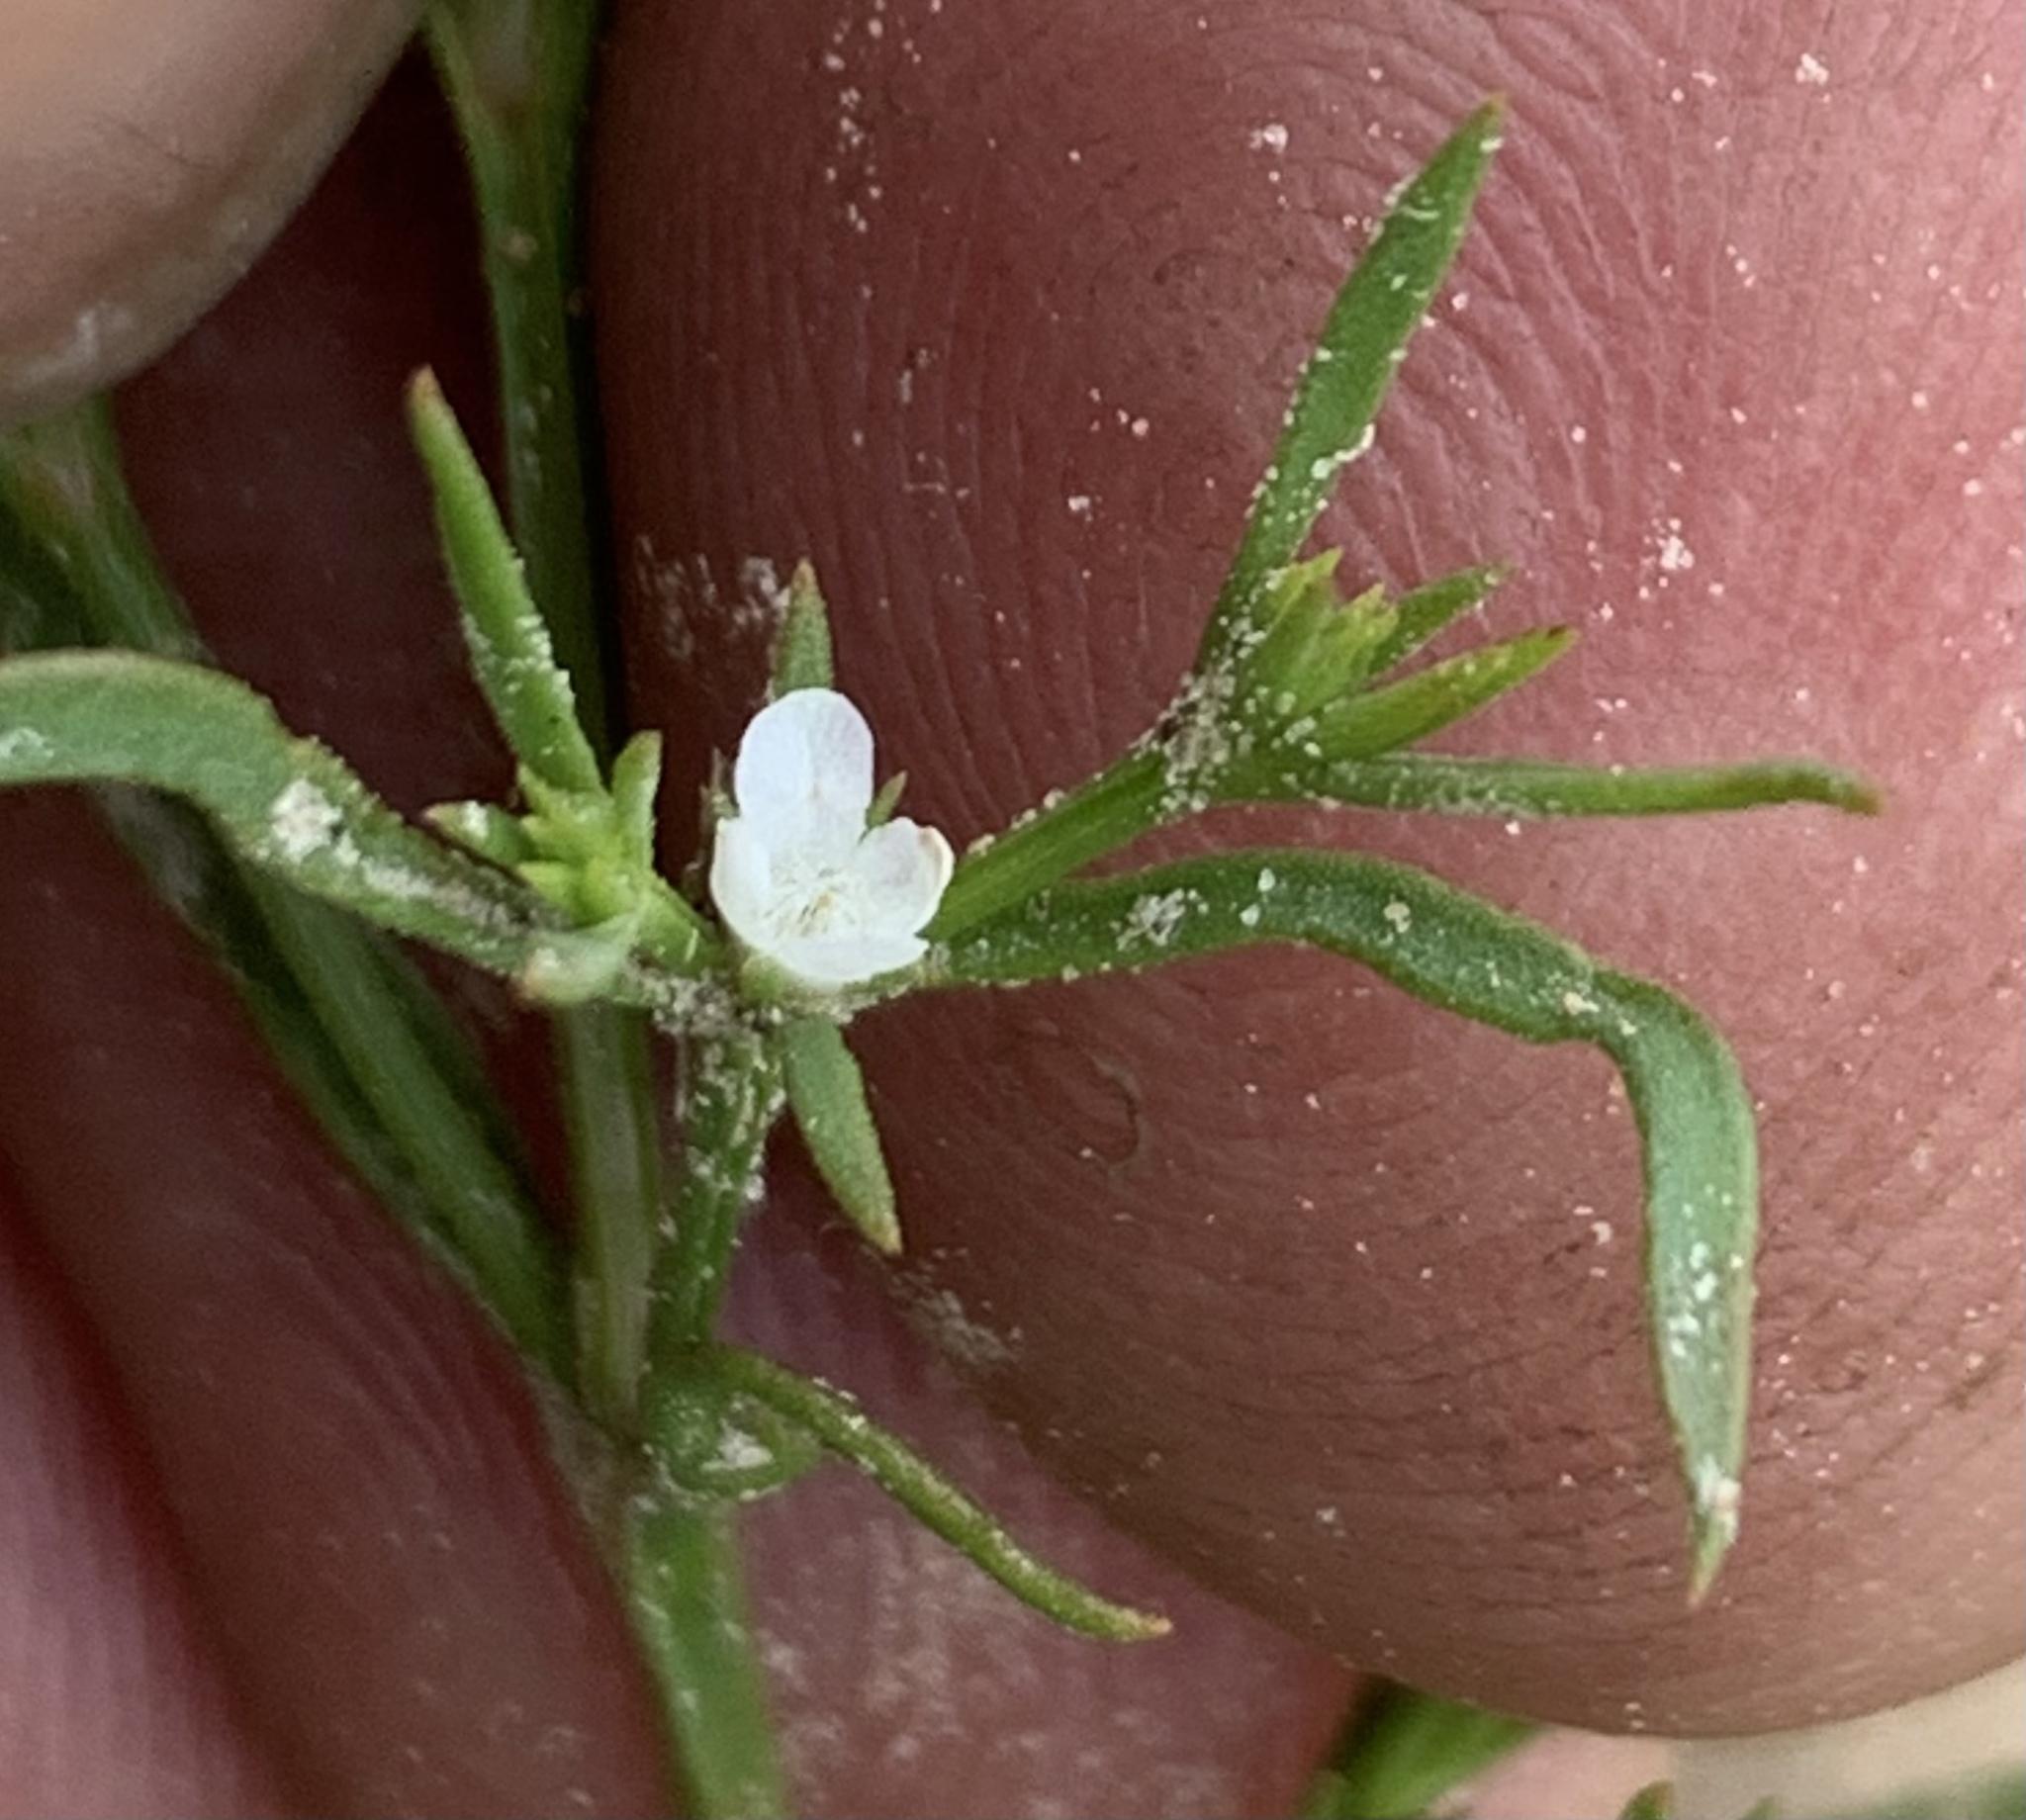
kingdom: Plantae
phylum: Tracheophyta
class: Magnoliopsida
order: Lamiales
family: Tetrachondraceae
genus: Polypremum
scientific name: Polypremum procumbens
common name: Juniper-leaf
